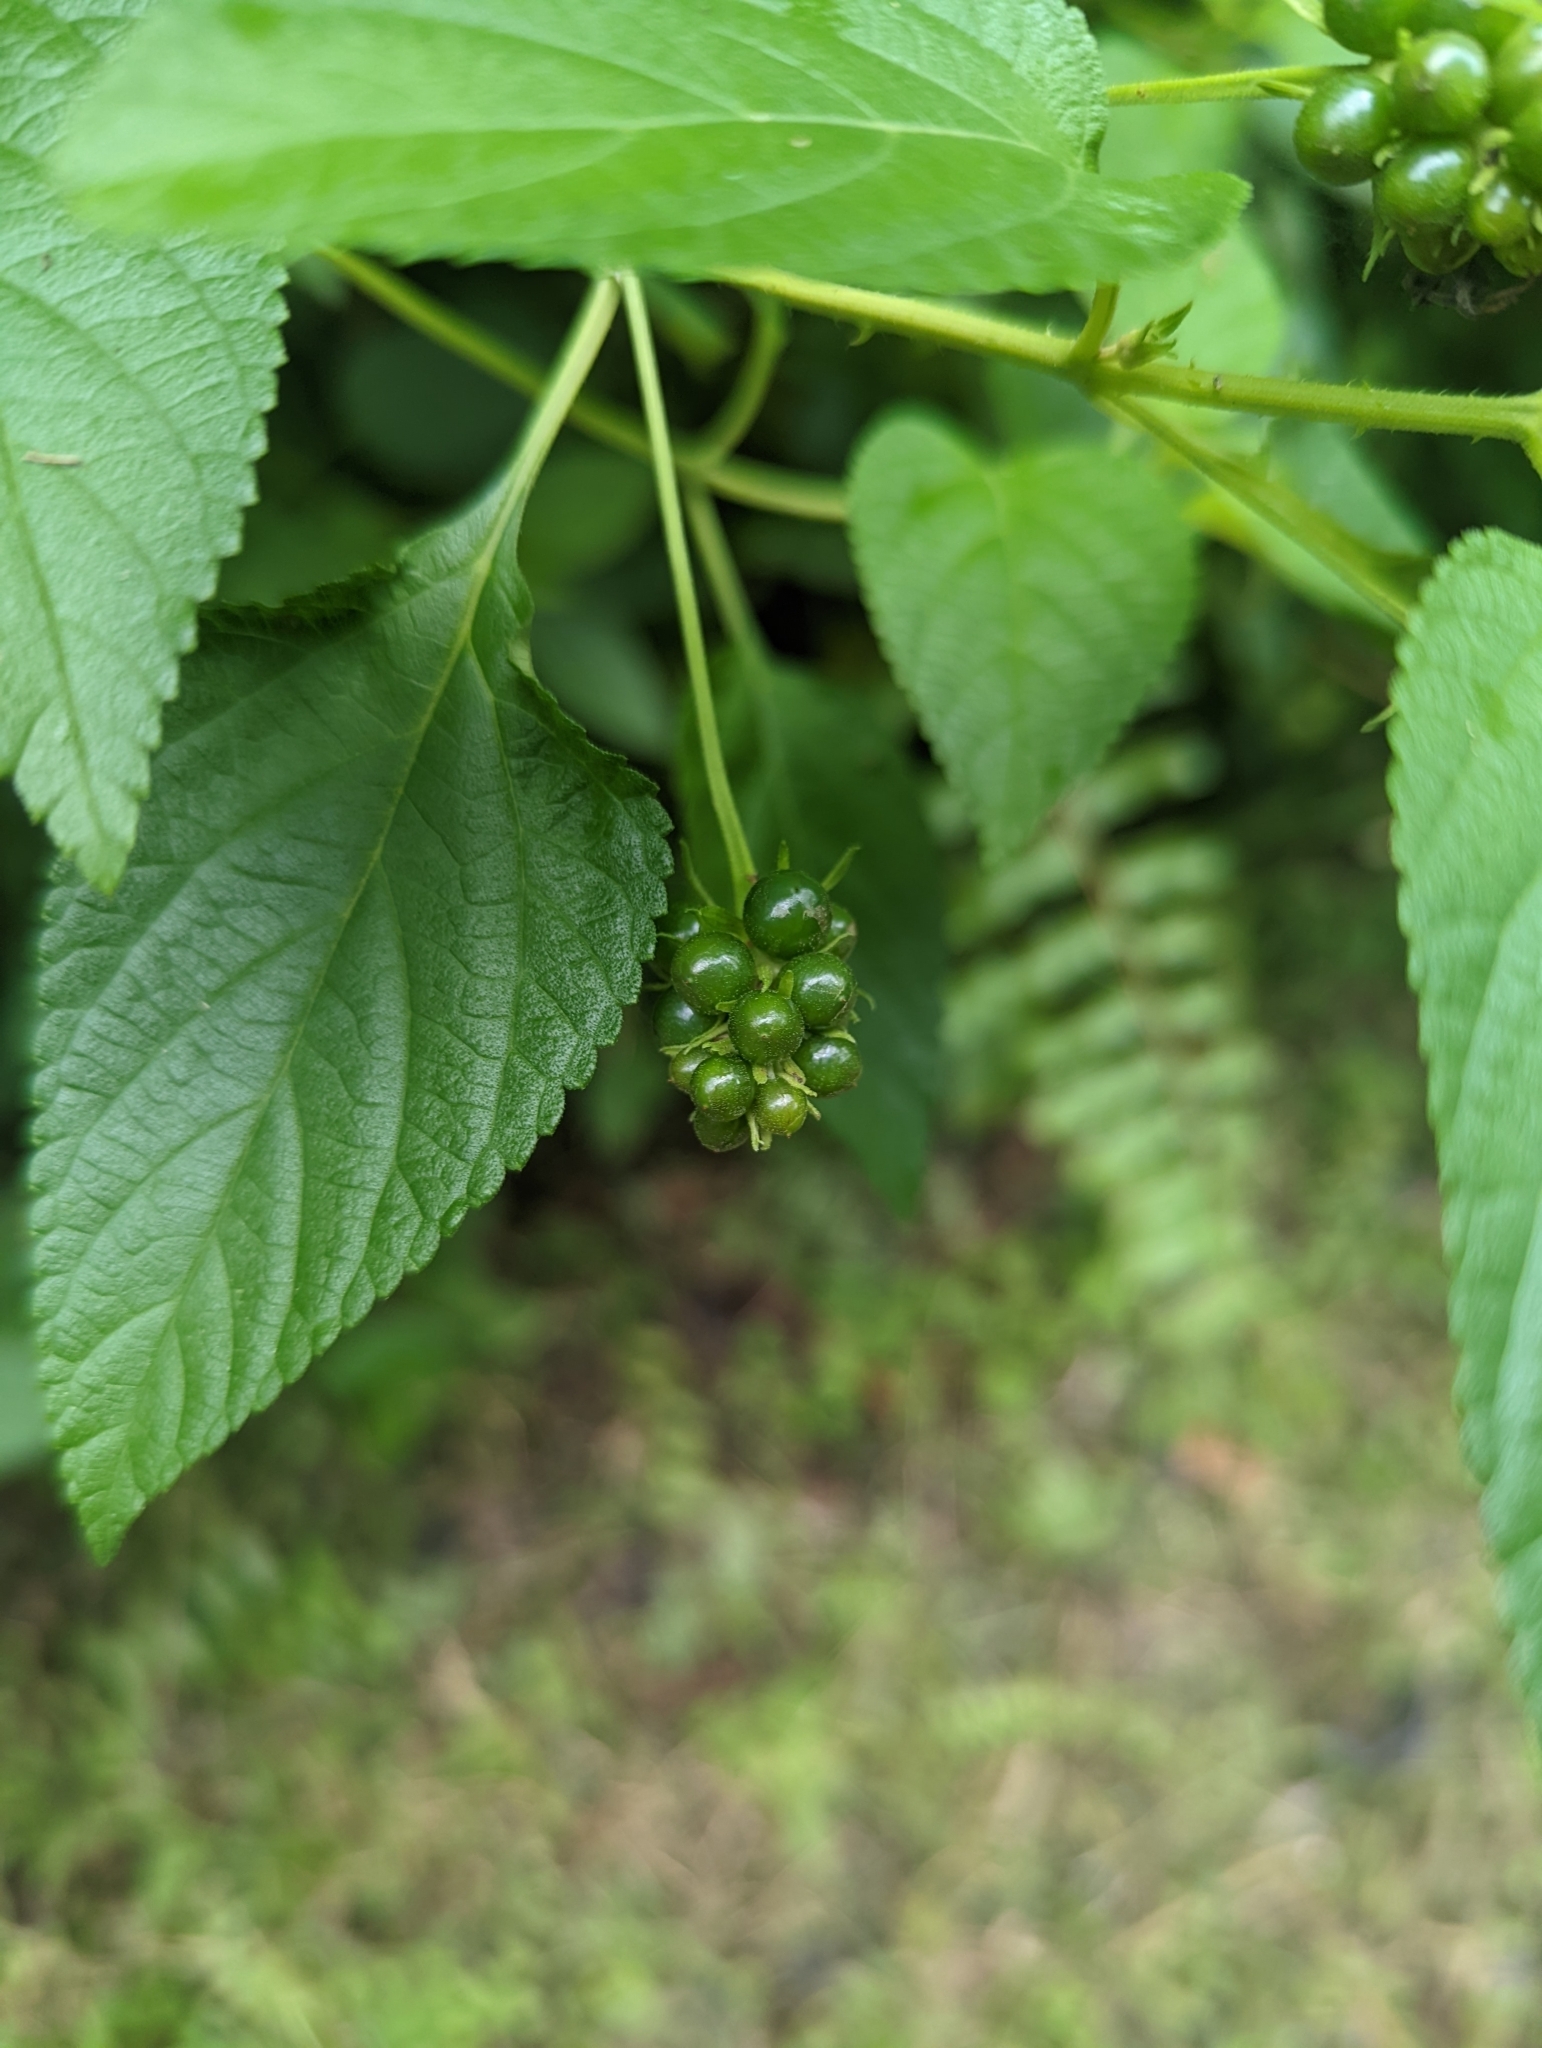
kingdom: Plantae
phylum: Tracheophyta
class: Magnoliopsida
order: Lamiales
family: Verbenaceae
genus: Lantana
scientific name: Lantana camara
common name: Lantana
